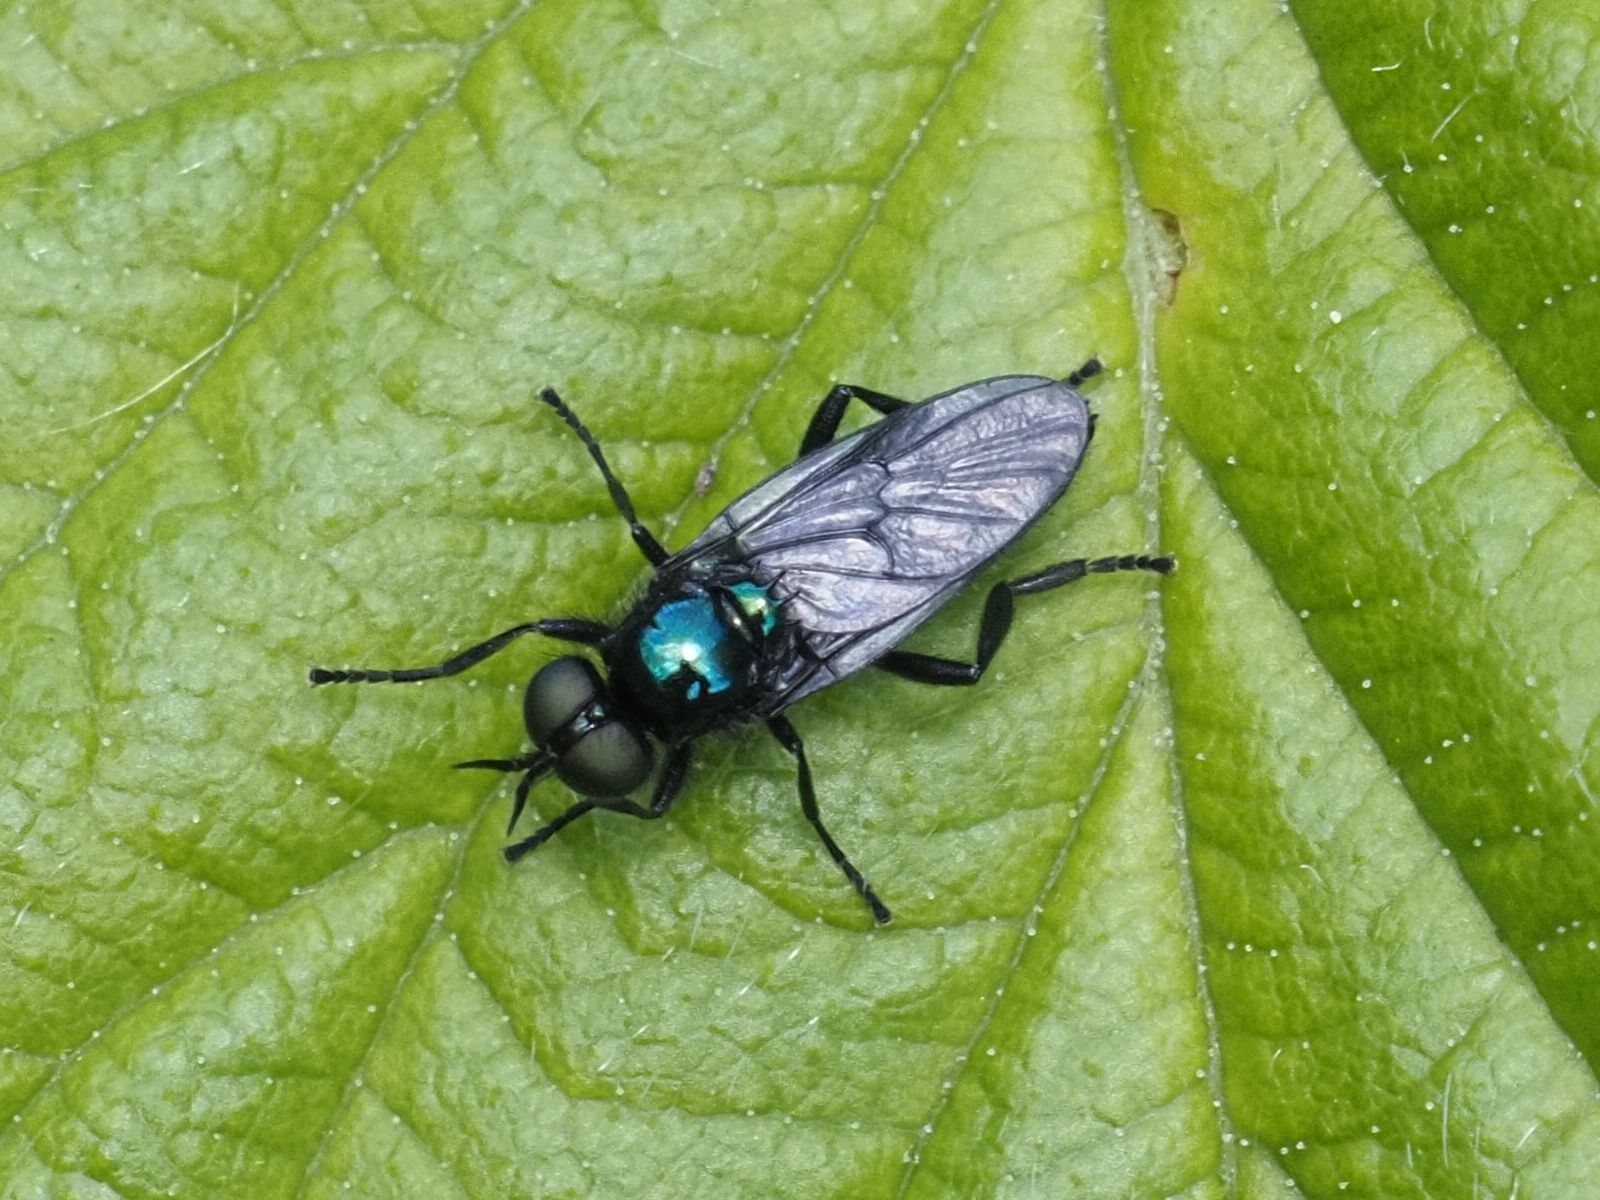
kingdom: Animalia
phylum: Arthropoda
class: Insecta
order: Diptera
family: Stratiomyidae
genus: Actina
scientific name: Actina chalybea
